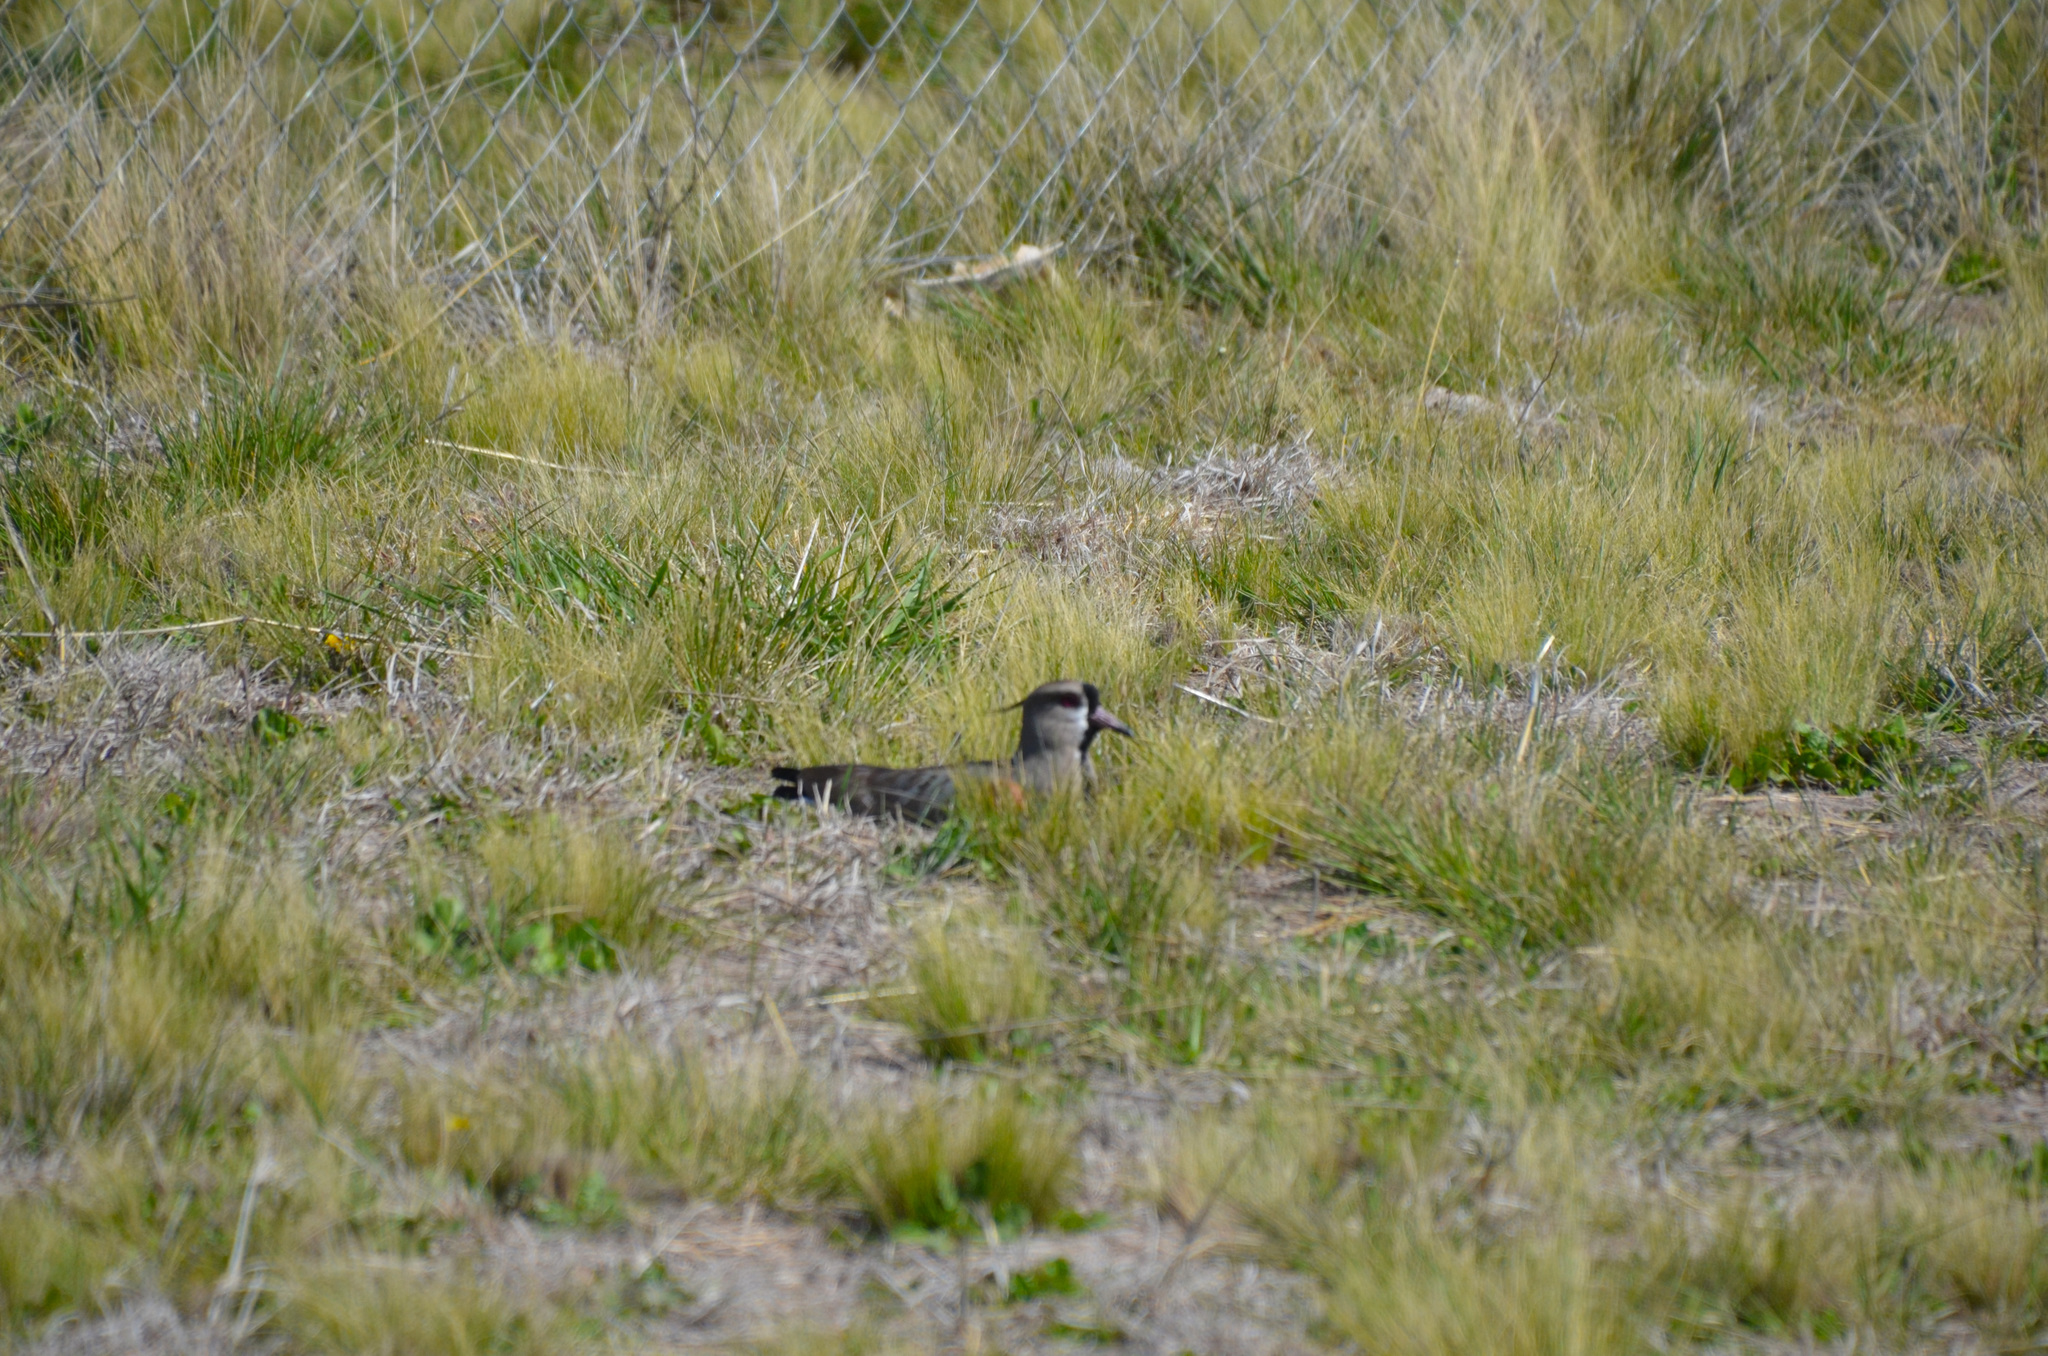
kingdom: Animalia
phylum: Chordata
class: Aves
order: Charadriiformes
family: Charadriidae
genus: Vanellus
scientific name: Vanellus chilensis
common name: Southern lapwing
